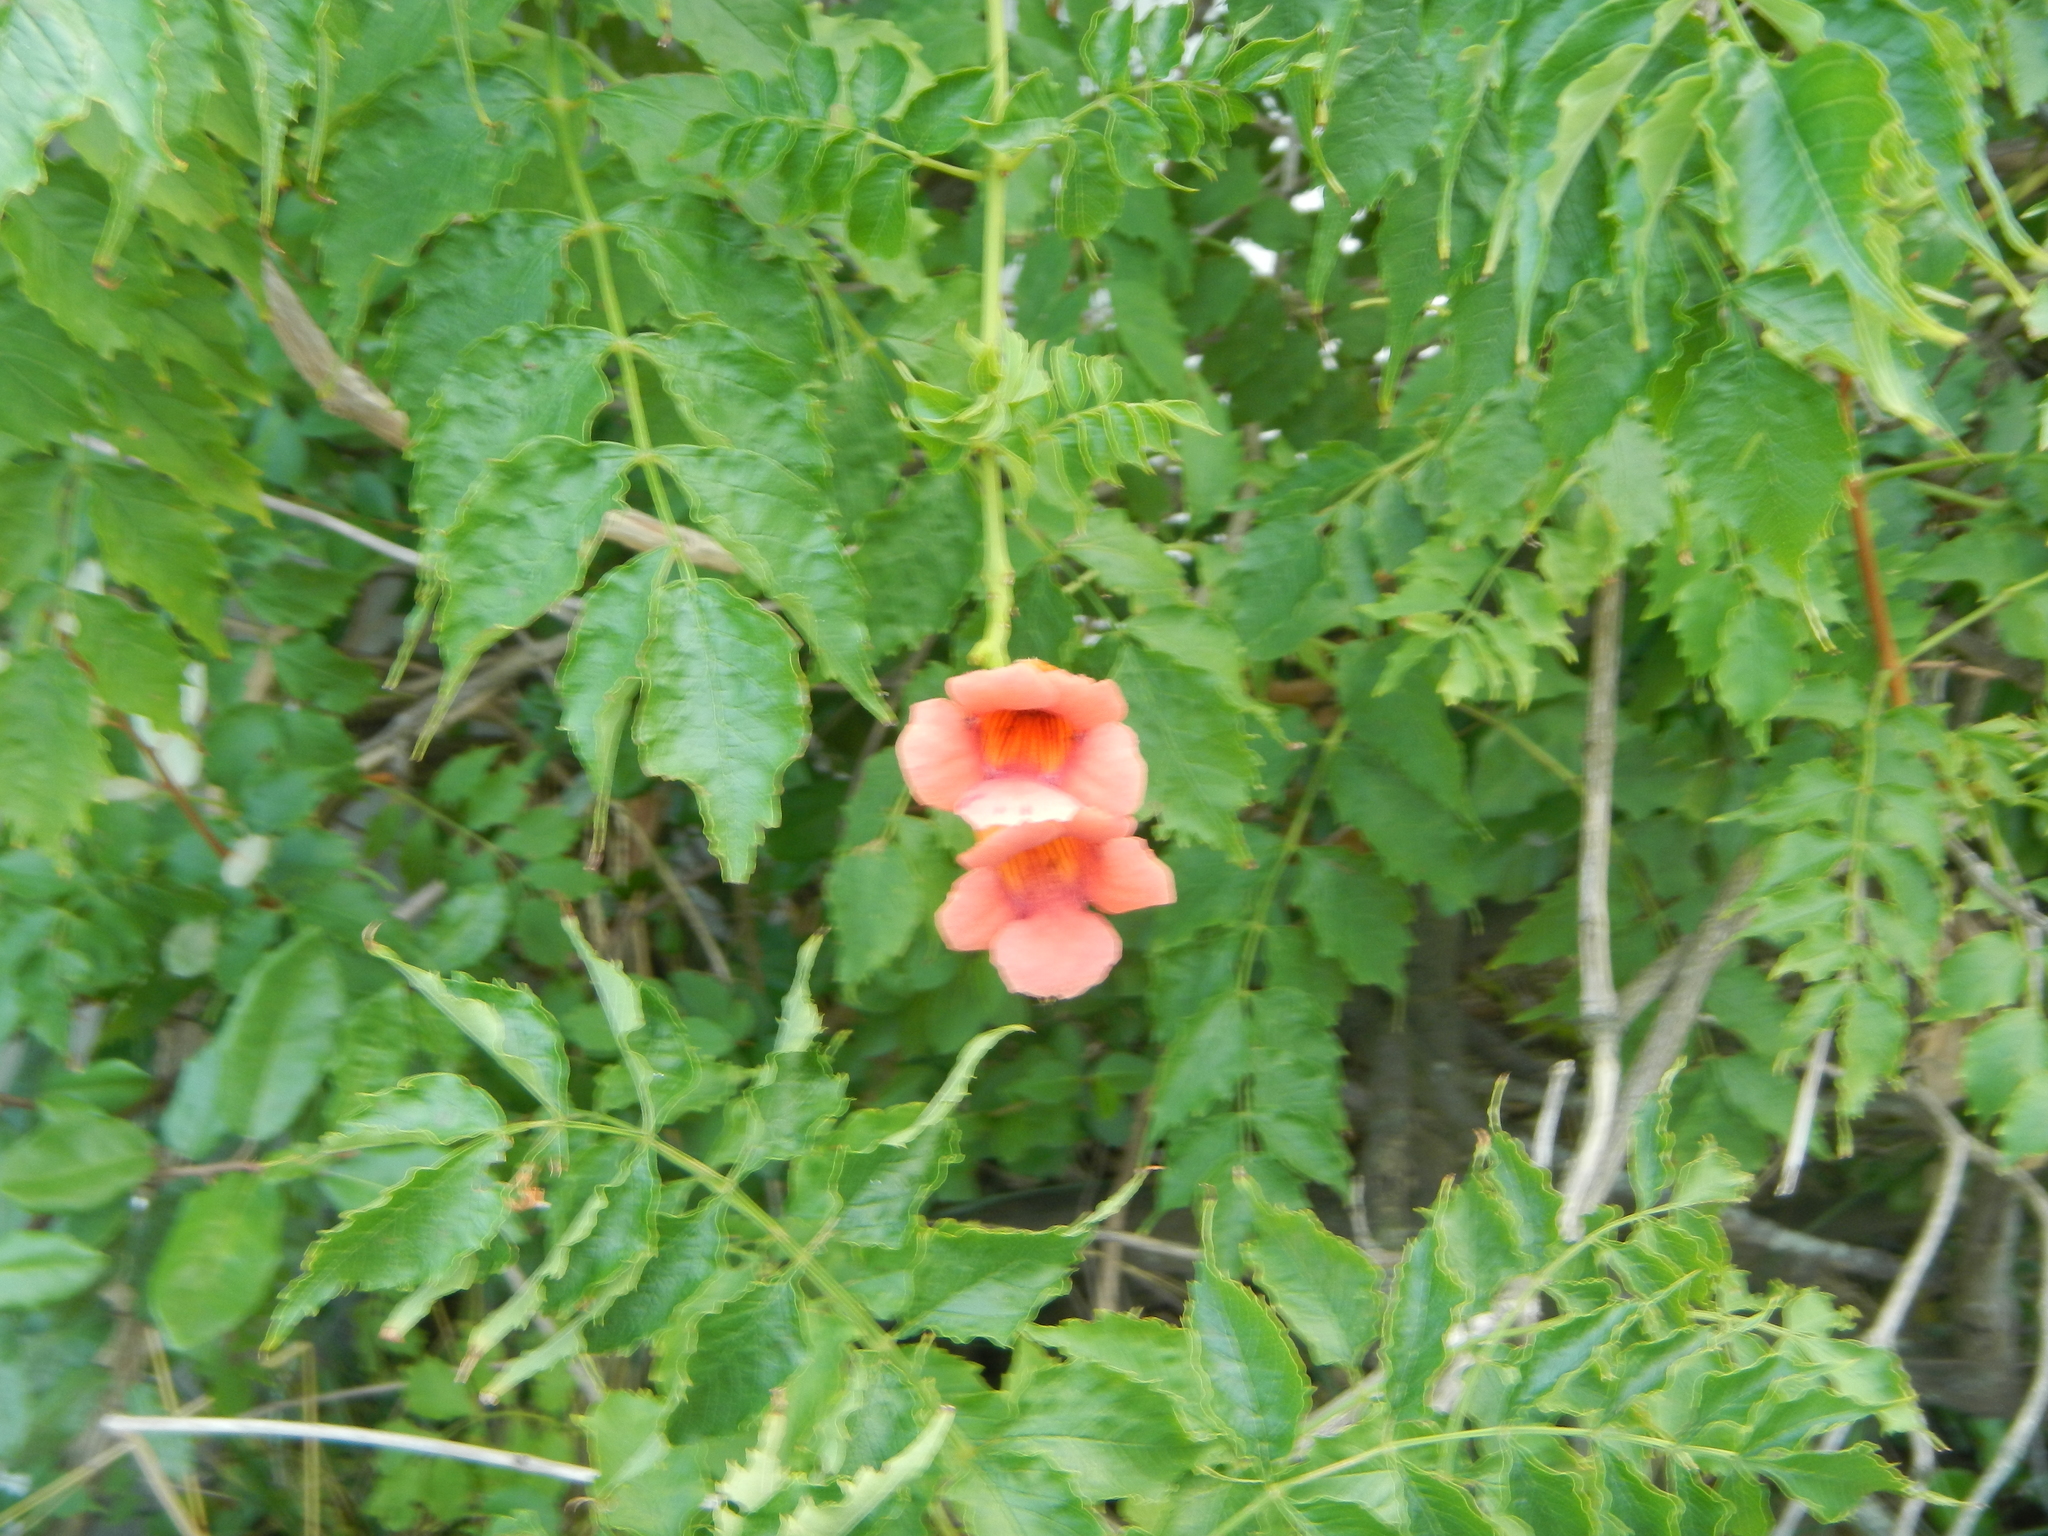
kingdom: Plantae
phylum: Tracheophyta
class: Magnoliopsida
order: Lamiales
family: Bignoniaceae
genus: Campsis
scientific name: Campsis radicans
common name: Trumpet-creeper
